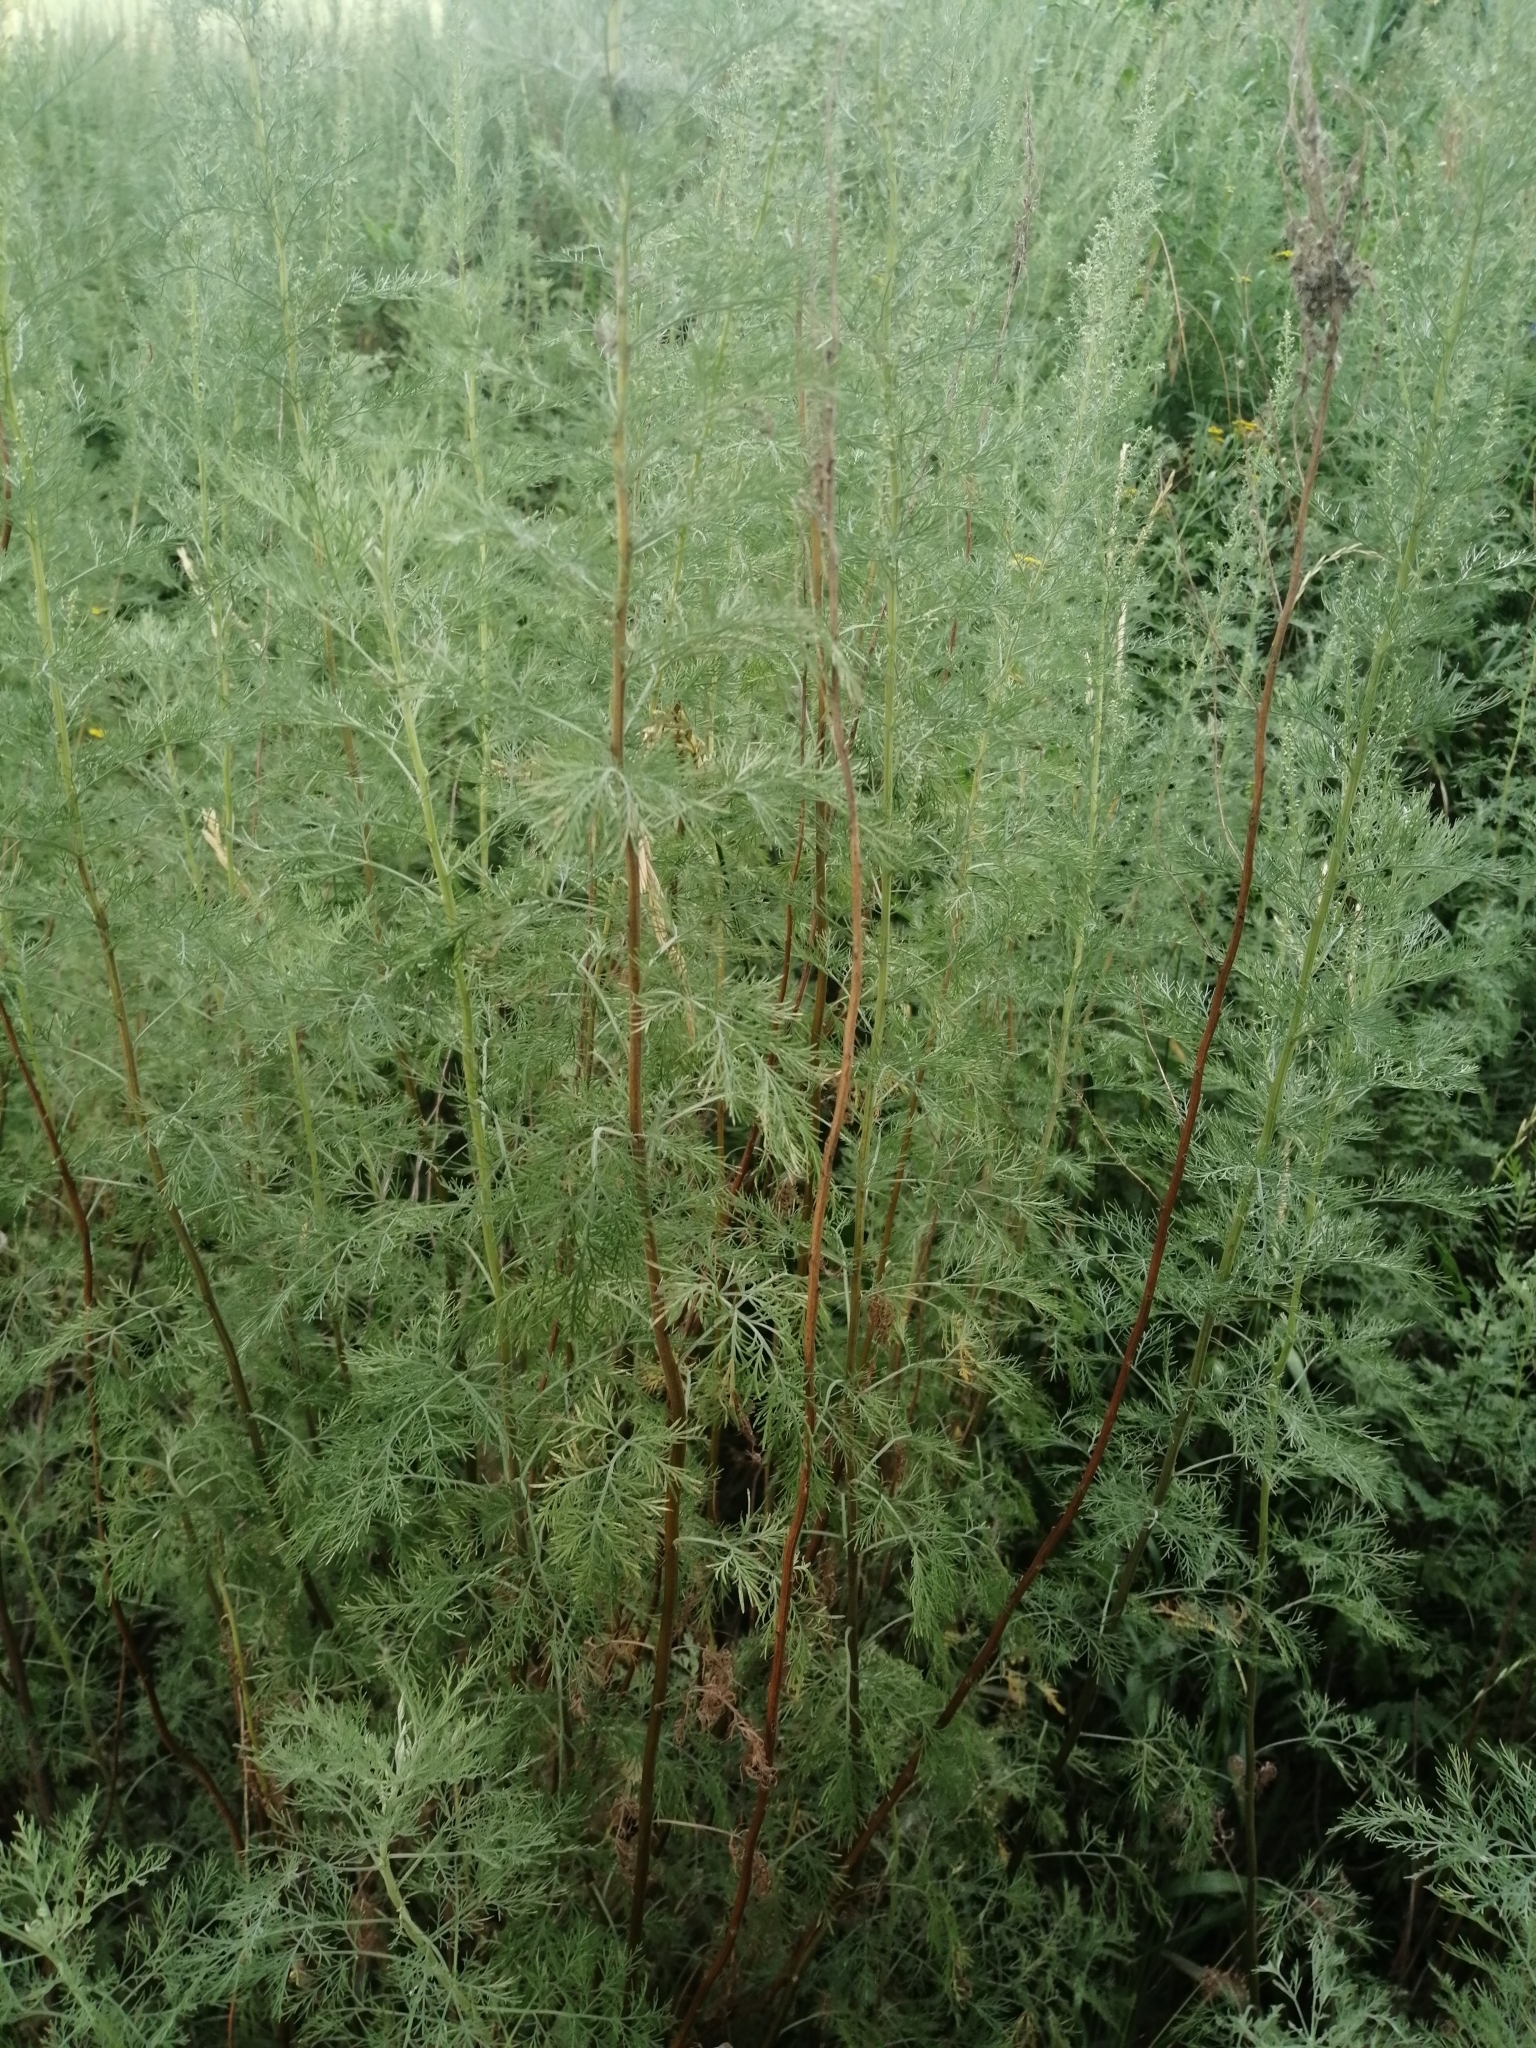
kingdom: Plantae
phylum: Tracheophyta
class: Magnoliopsida
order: Asterales
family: Asteraceae
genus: Artemisia
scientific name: Artemisia abrotanum
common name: Southernwood
